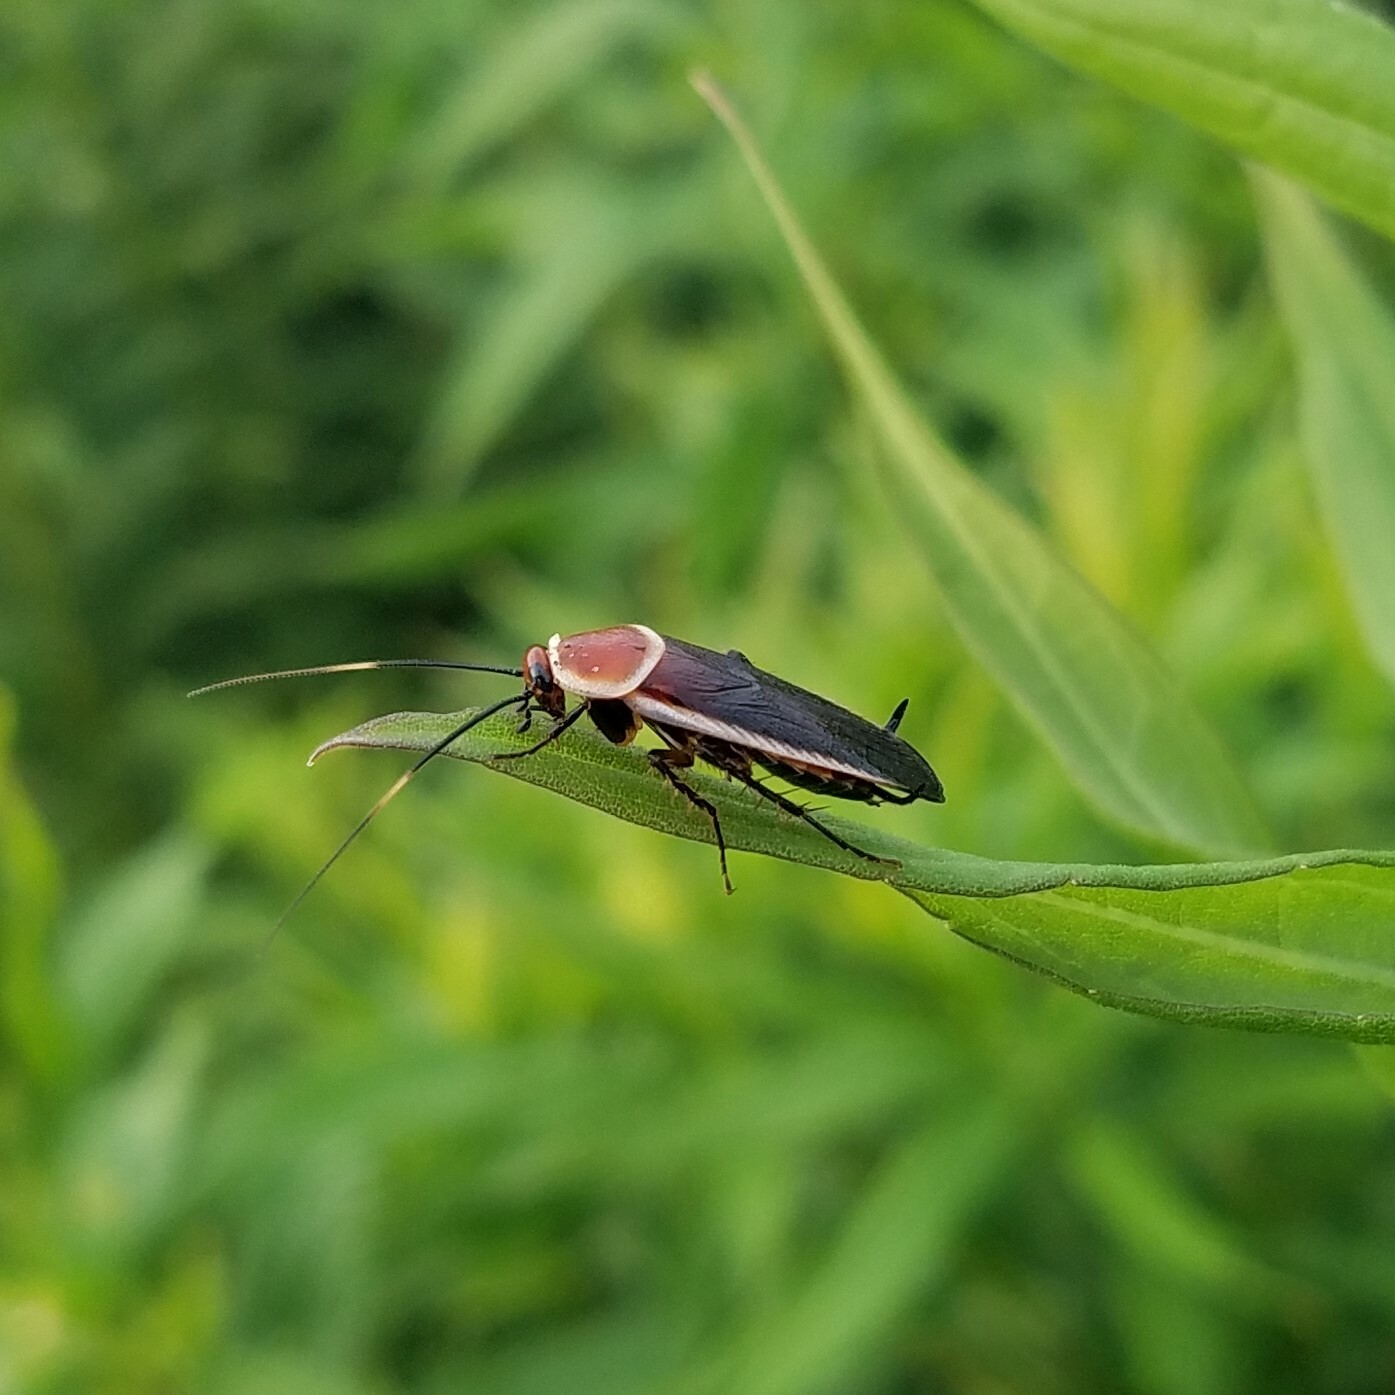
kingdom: Animalia
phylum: Arthropoda
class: Insecta
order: Blattodea
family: Ectobiidae
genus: Pseudomops
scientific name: Pseudomops septentrionalis
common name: Pale-bordered field cockroach
